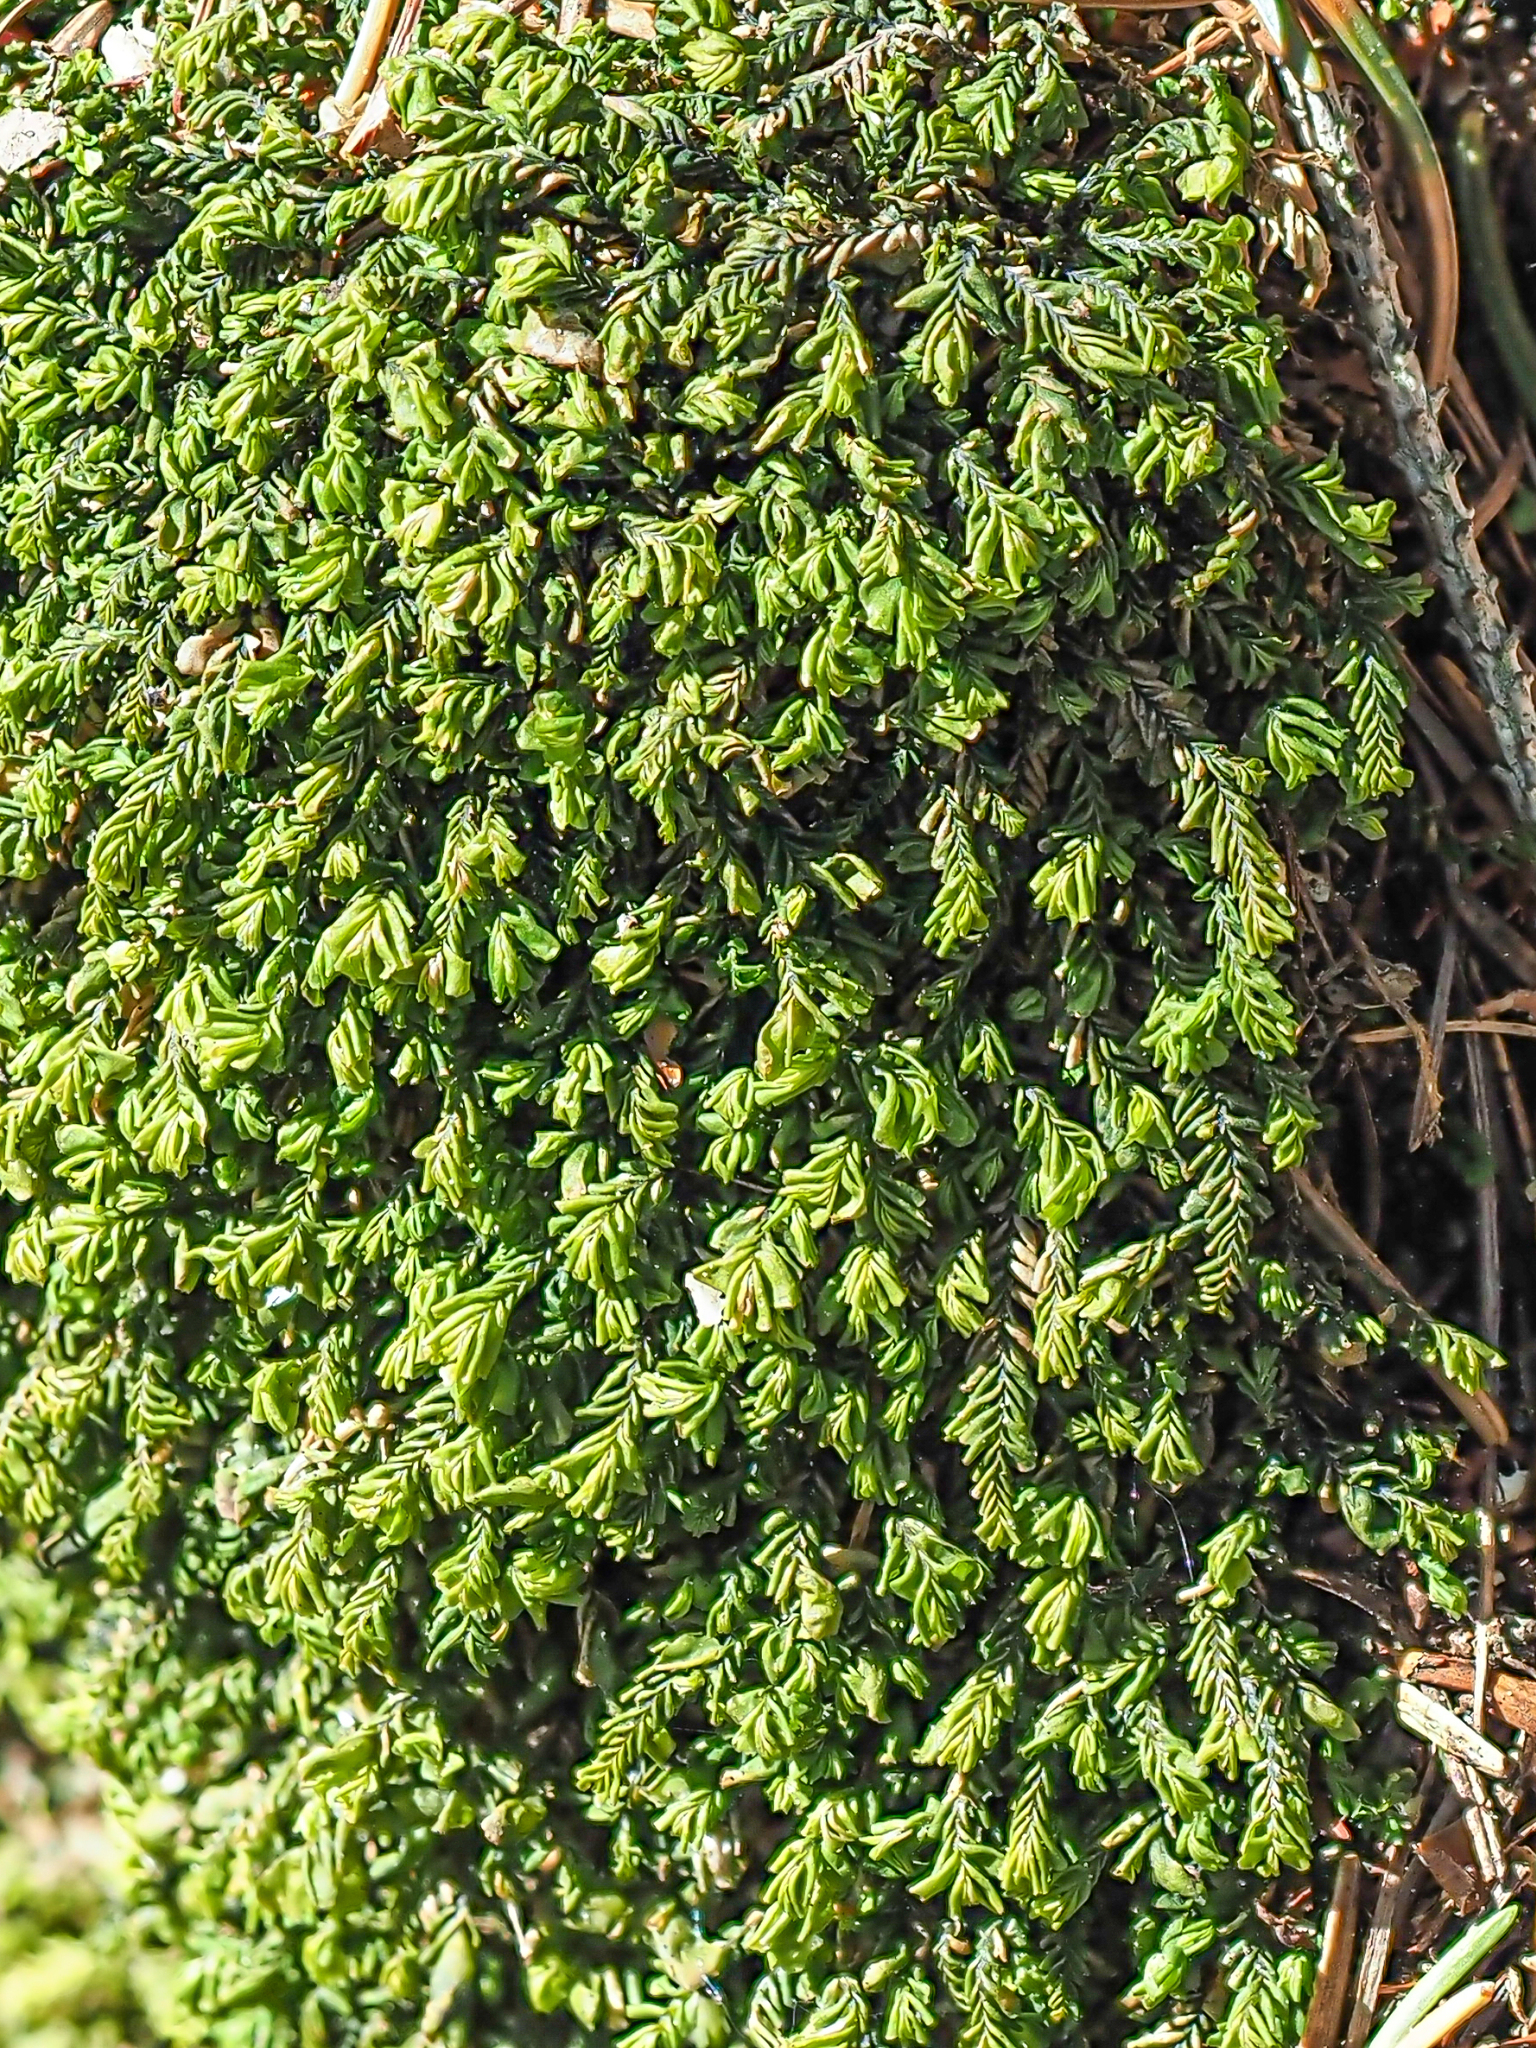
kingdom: Plantae
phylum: Marchantiophyta
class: Jungermanniopsida
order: Jungermanniales
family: Plagiochilaceae
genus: Plagiochila
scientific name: Plagiochila porelloides
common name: Lesser featherwort
